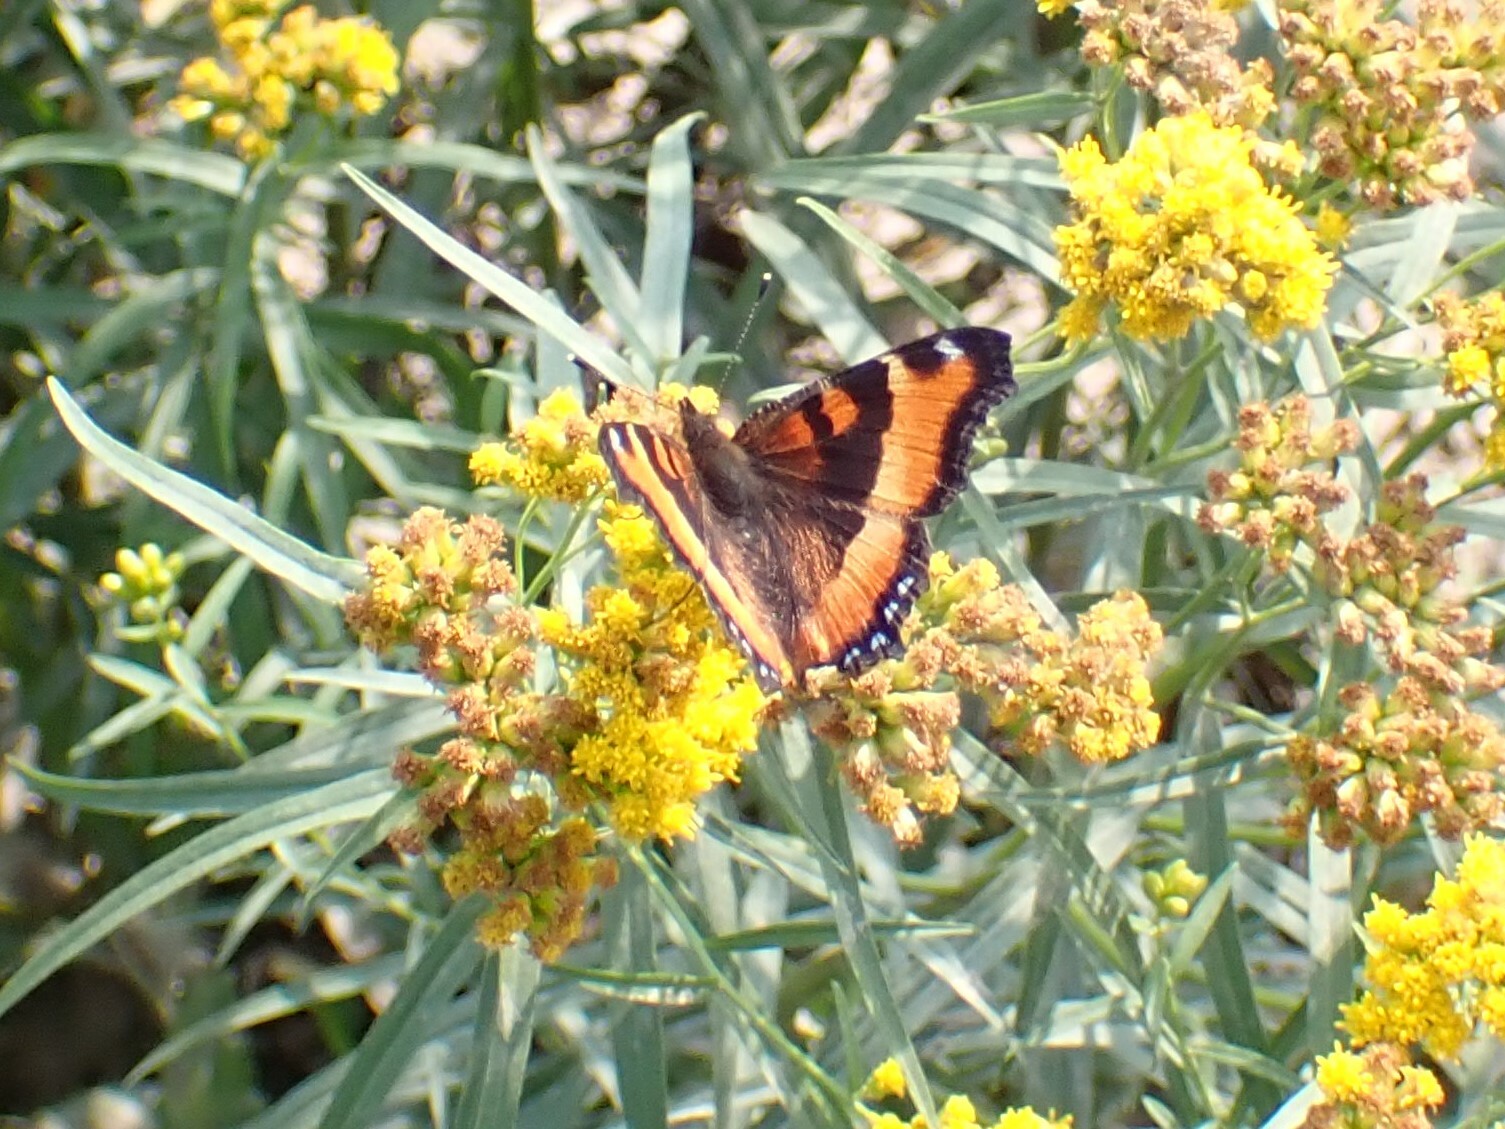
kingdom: Animalia
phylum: Arthropoda
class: Insecta
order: Lepidoptera
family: Nymphalidae
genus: Aglais
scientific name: Aglais milberti
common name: Milbert's tortoiseshell
